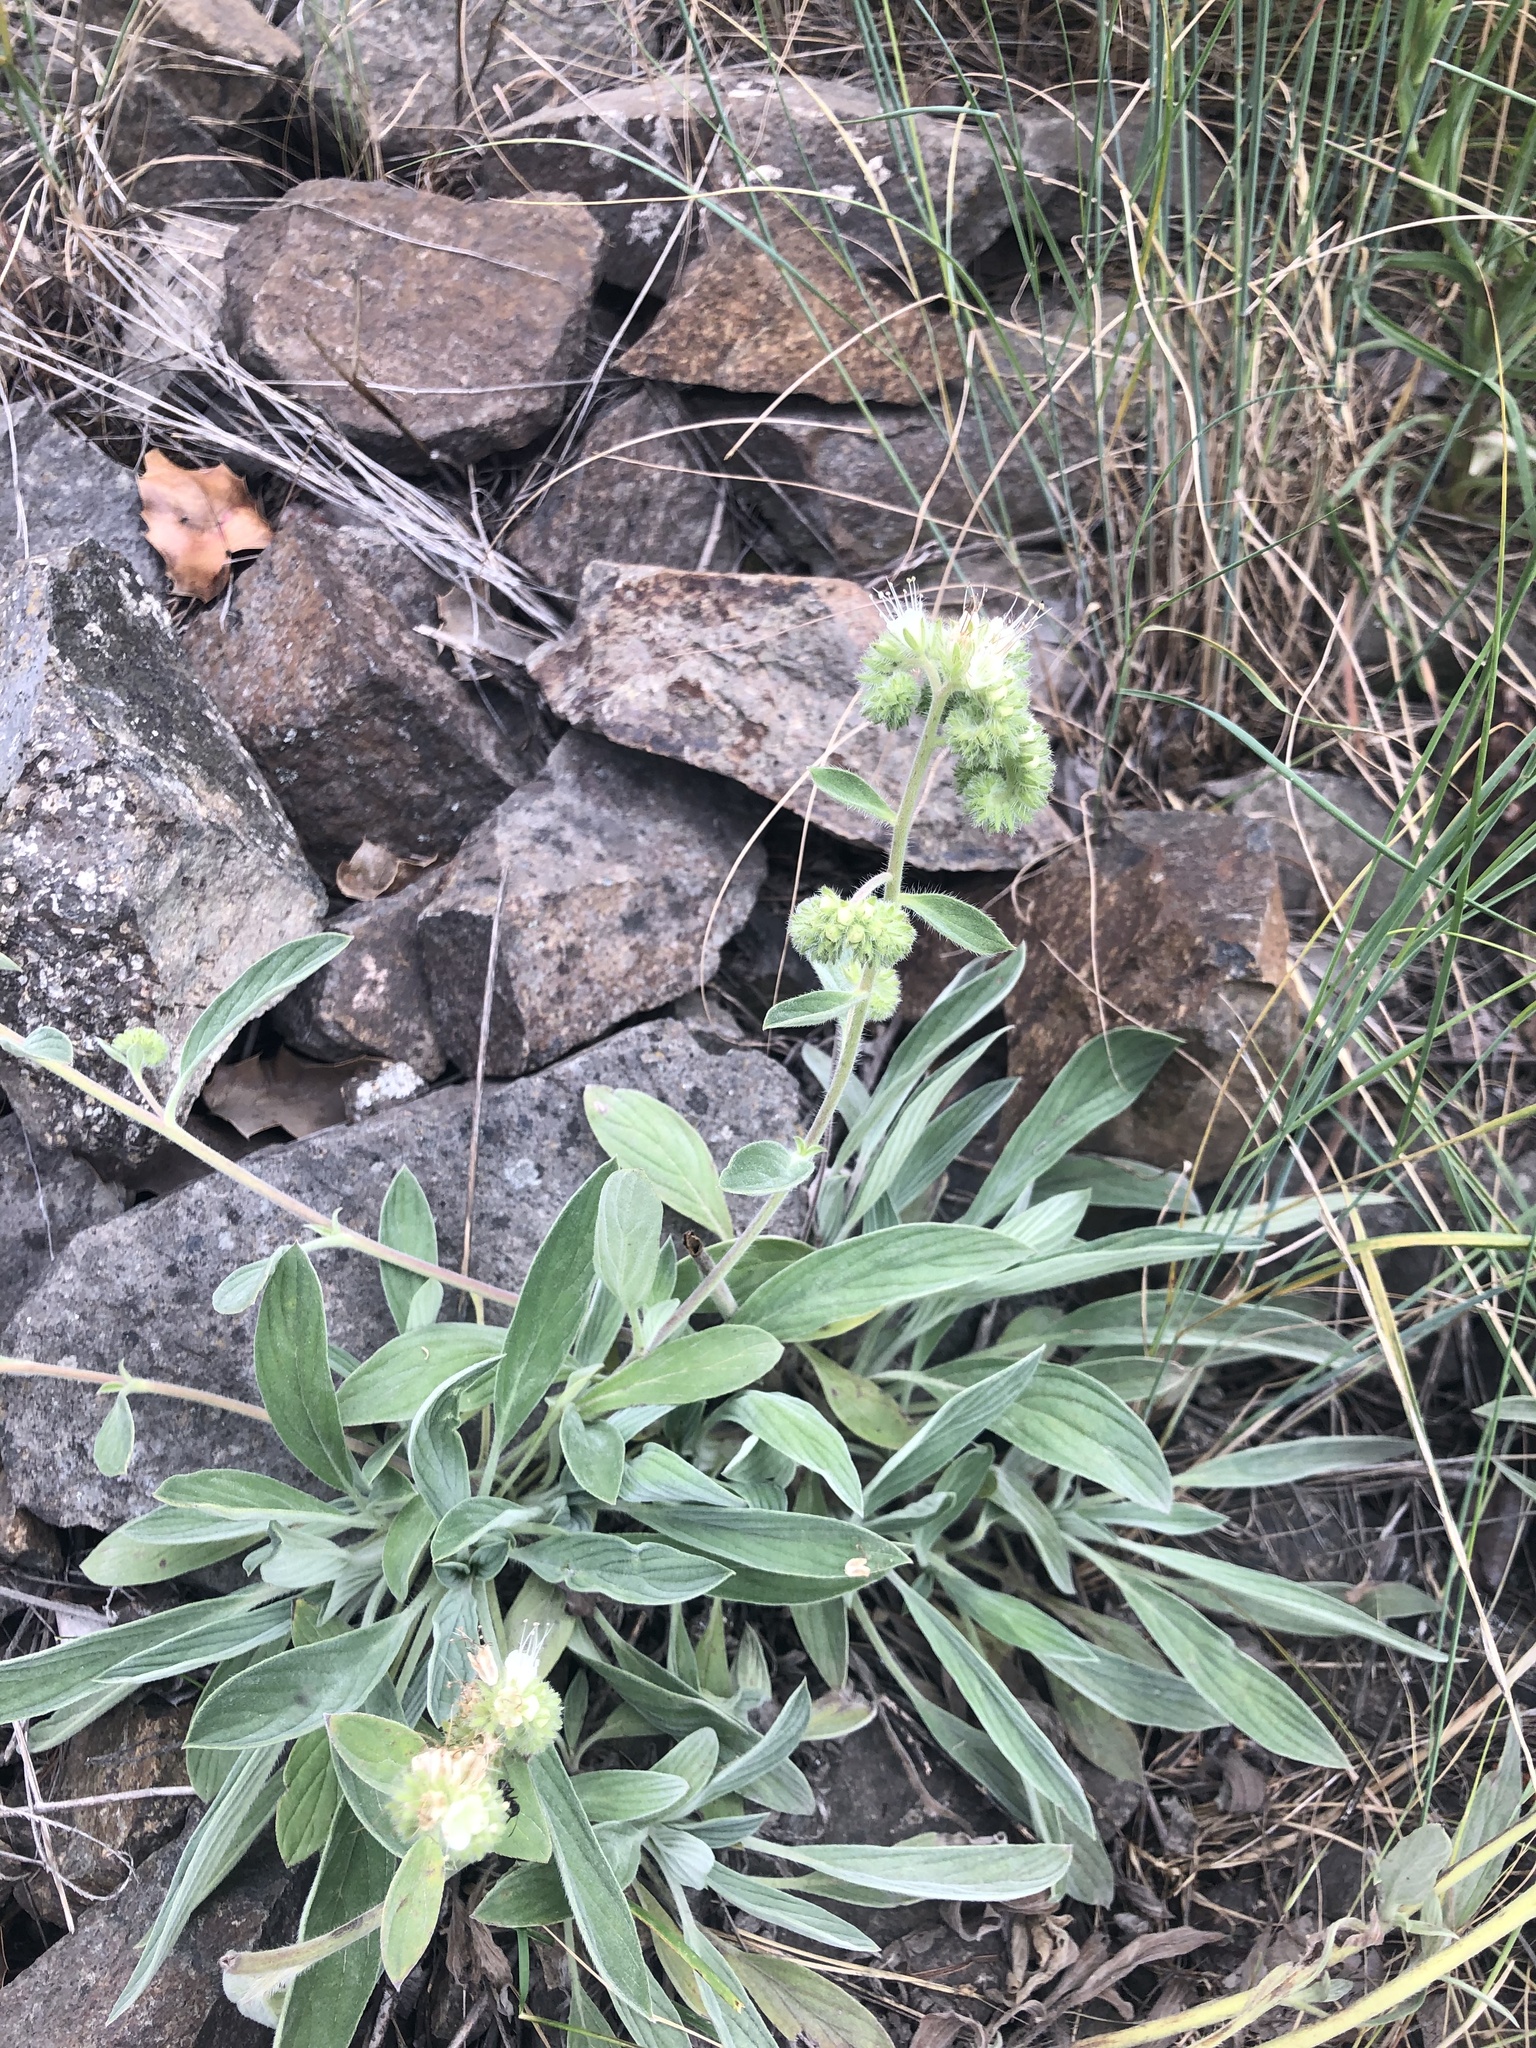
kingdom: Plantae
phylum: Tracheophyta
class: Magnoliopsida
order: Boraginales
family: Hydrophyllaceae
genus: Phacelia
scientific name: Phacelia hastata
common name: Silver-leaved phacelia
